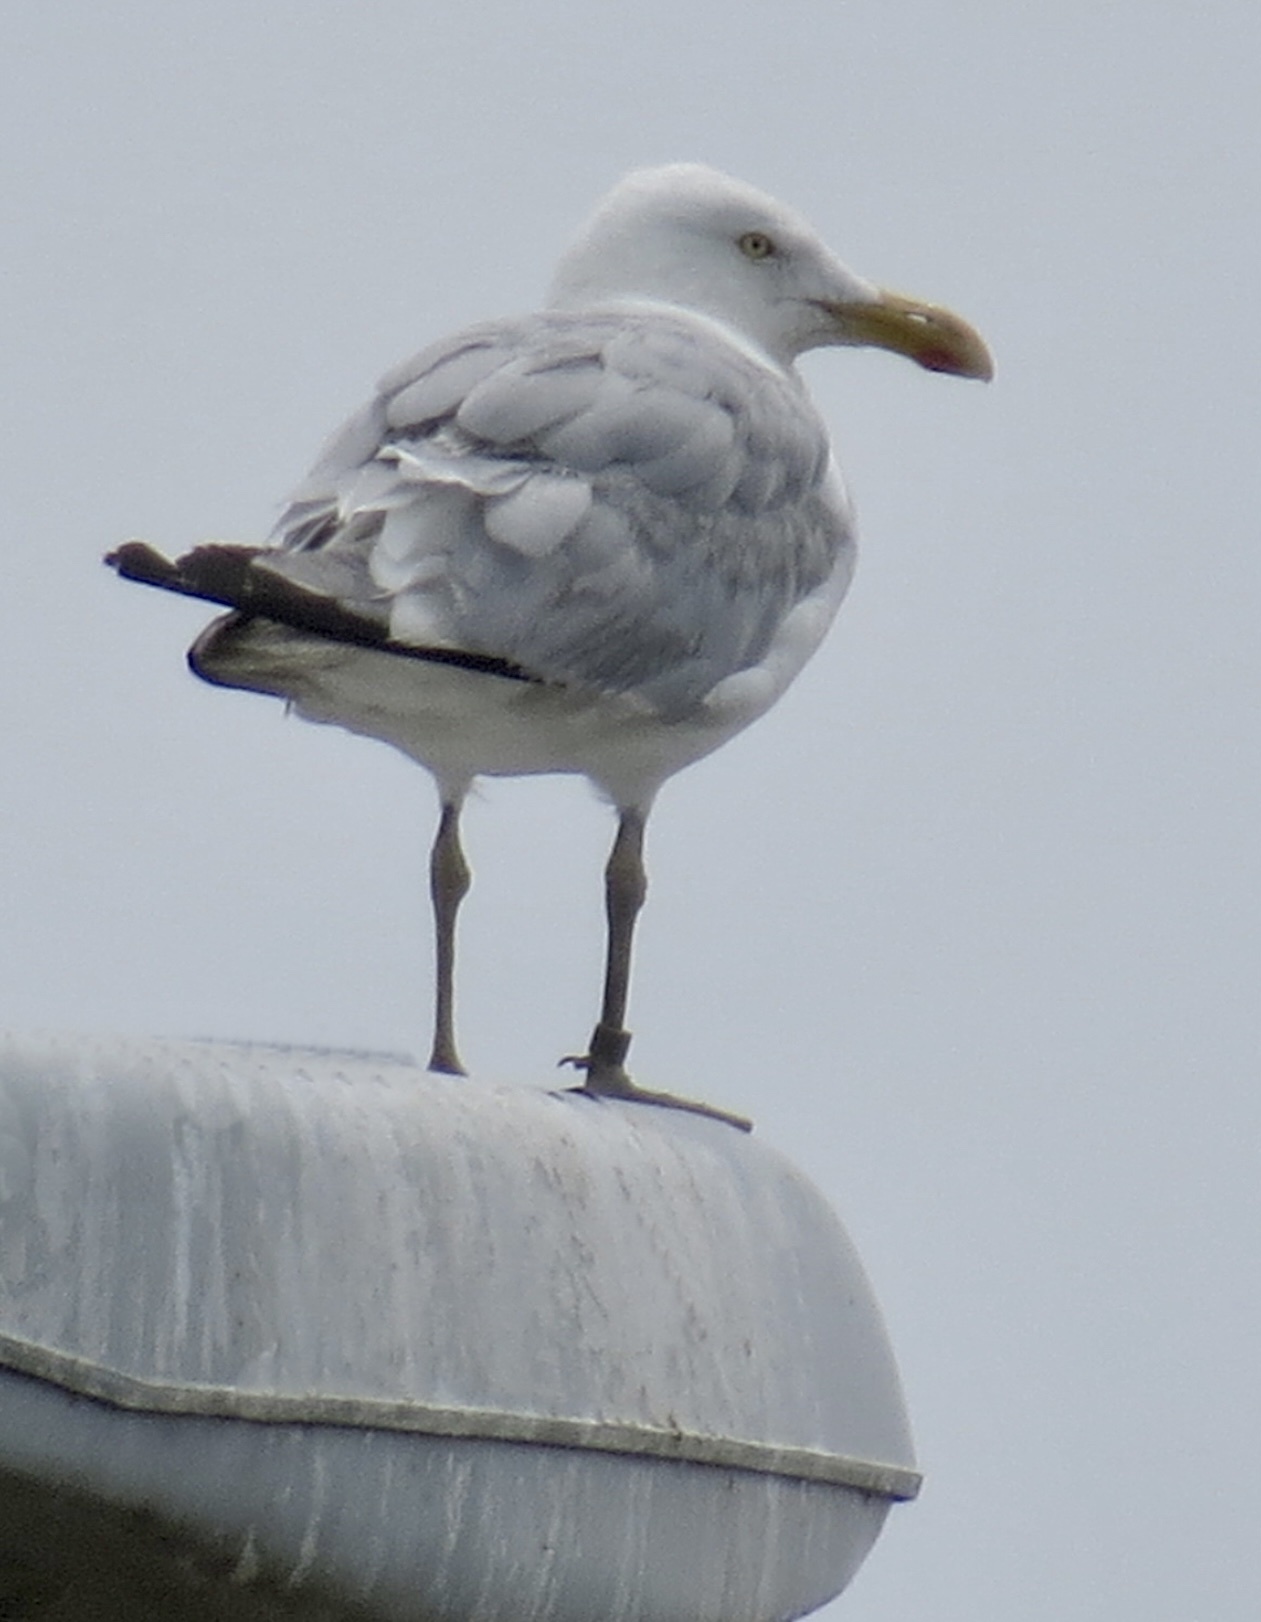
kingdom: Animalia
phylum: Chordata
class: Aves
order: Charadriiformes
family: Laridae
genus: Larus
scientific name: Larus argentatus
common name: Herring gull
